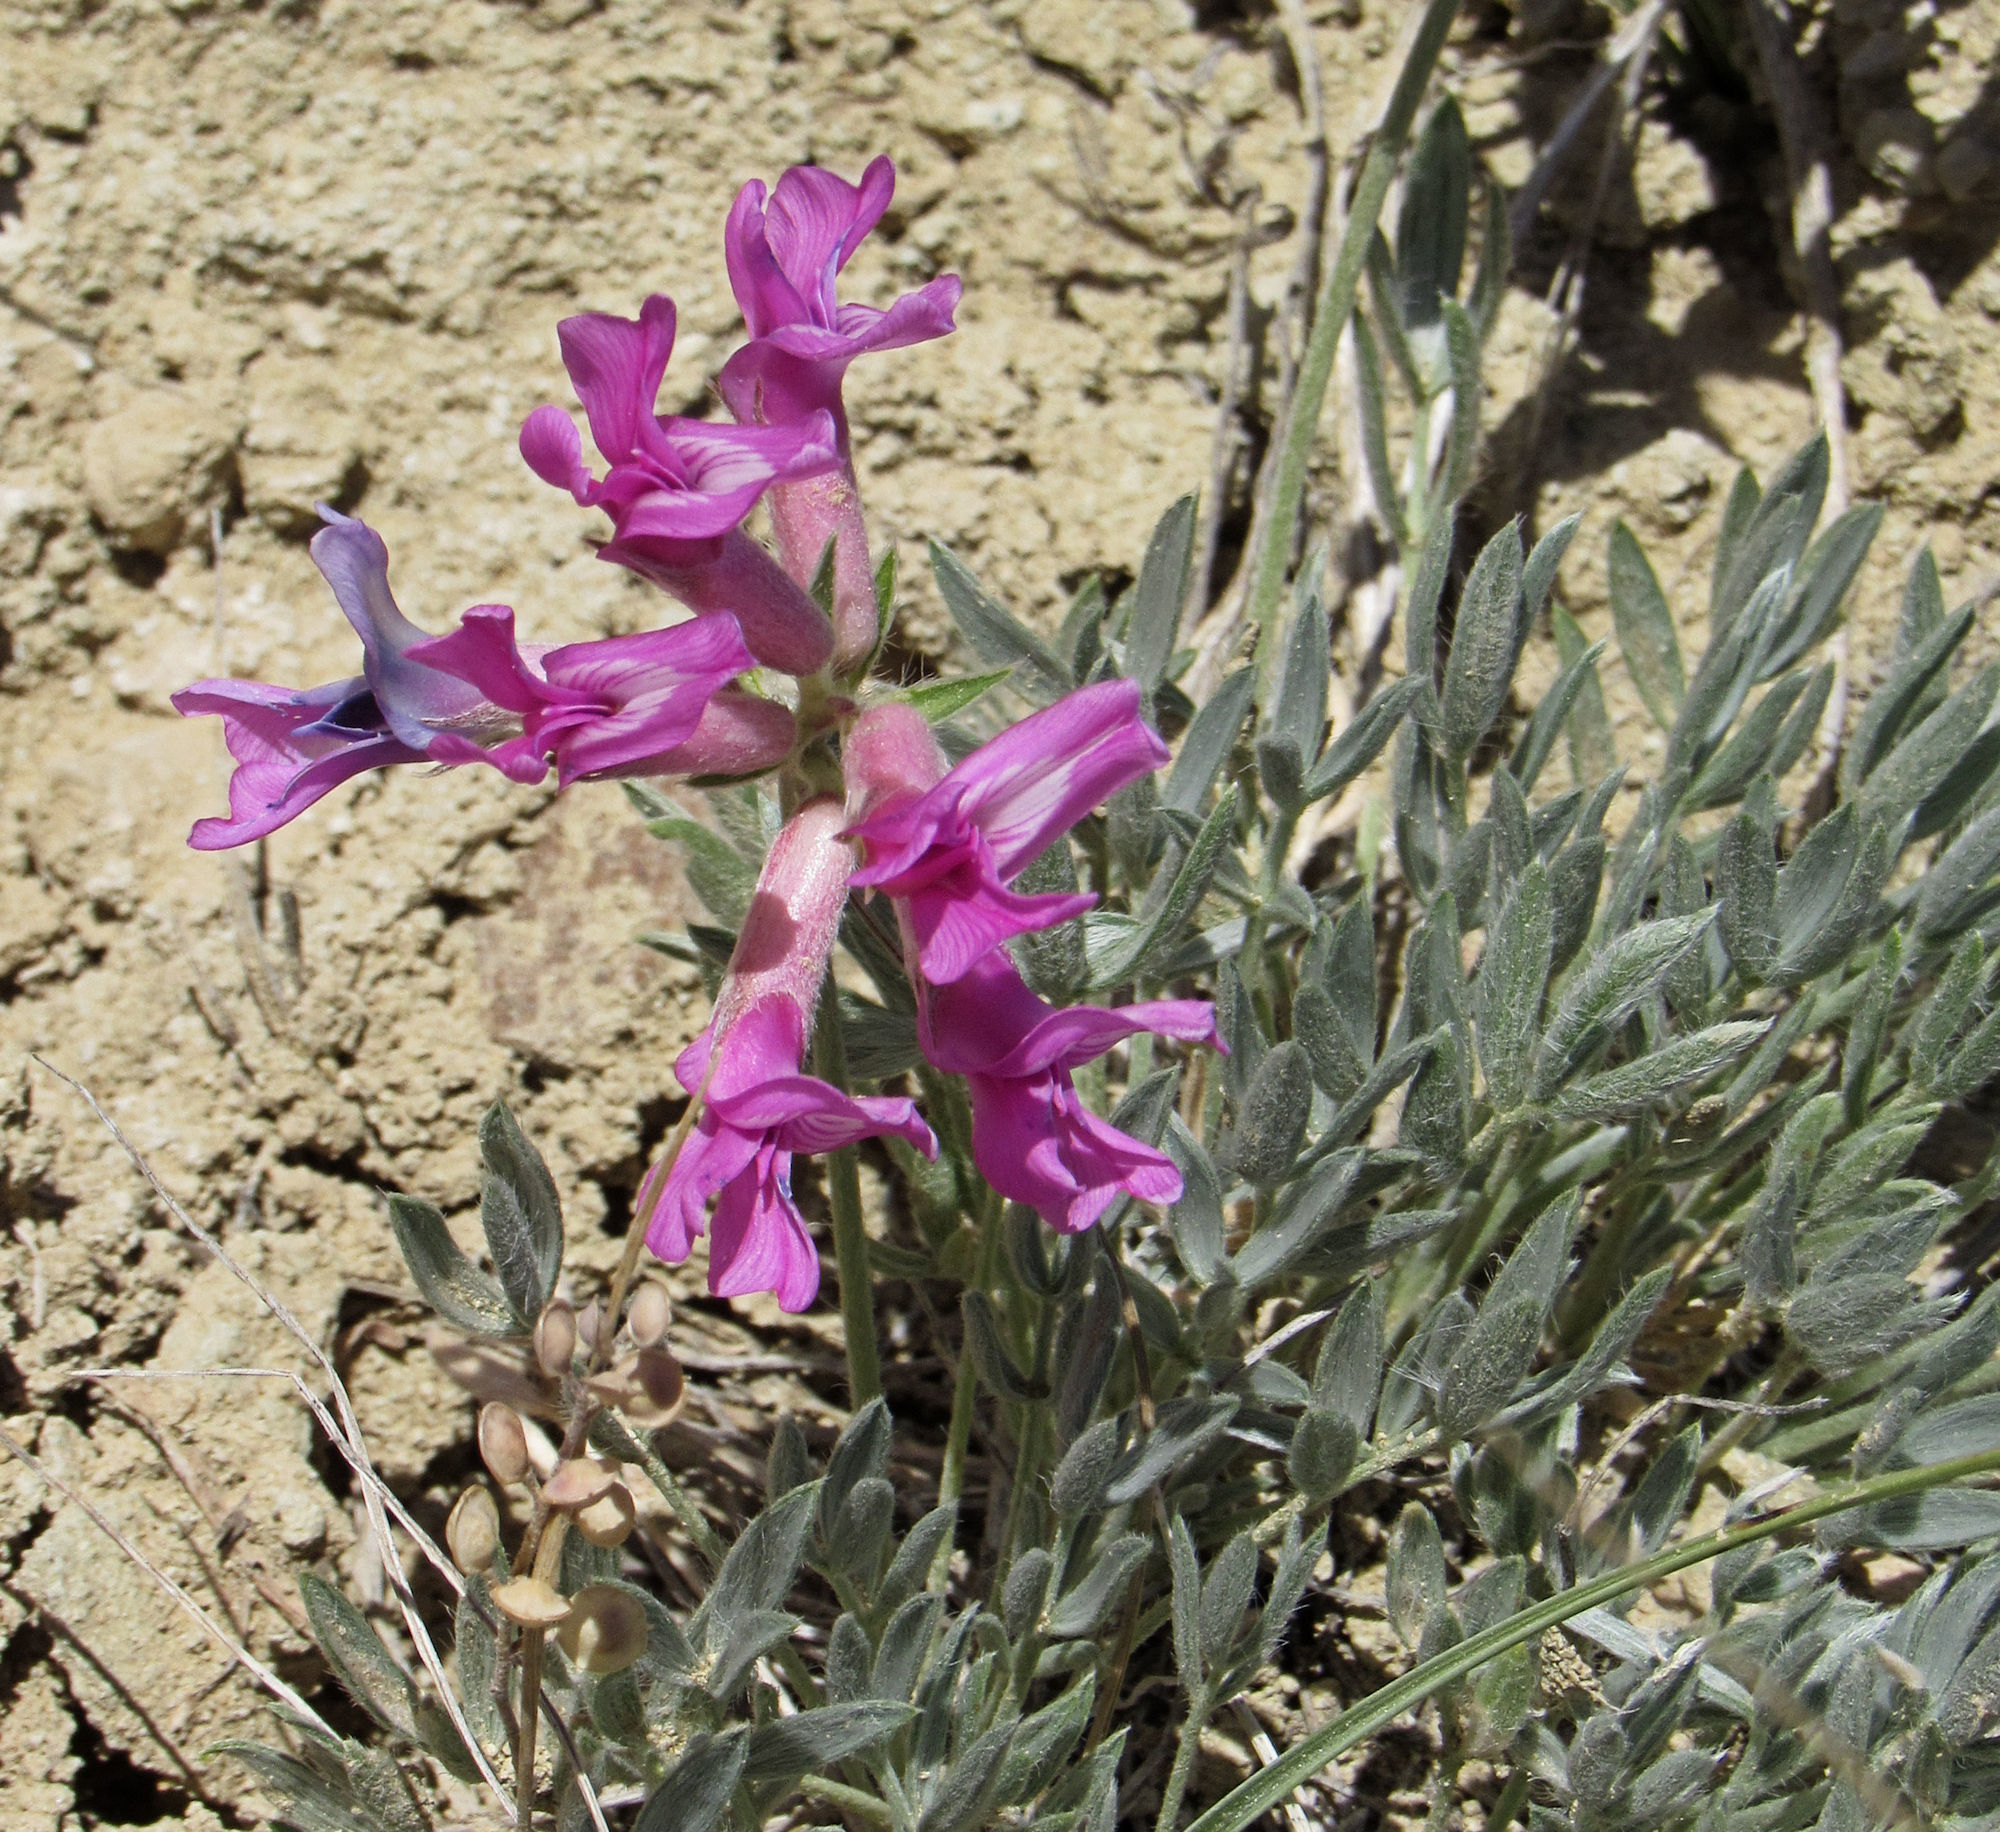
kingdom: Plantae
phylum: Tracheophyta
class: Magnoliopsida
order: Fabales
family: Fabaceae
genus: Oxytropis
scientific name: Oxytropis besseyi
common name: Bessey's locoweed
